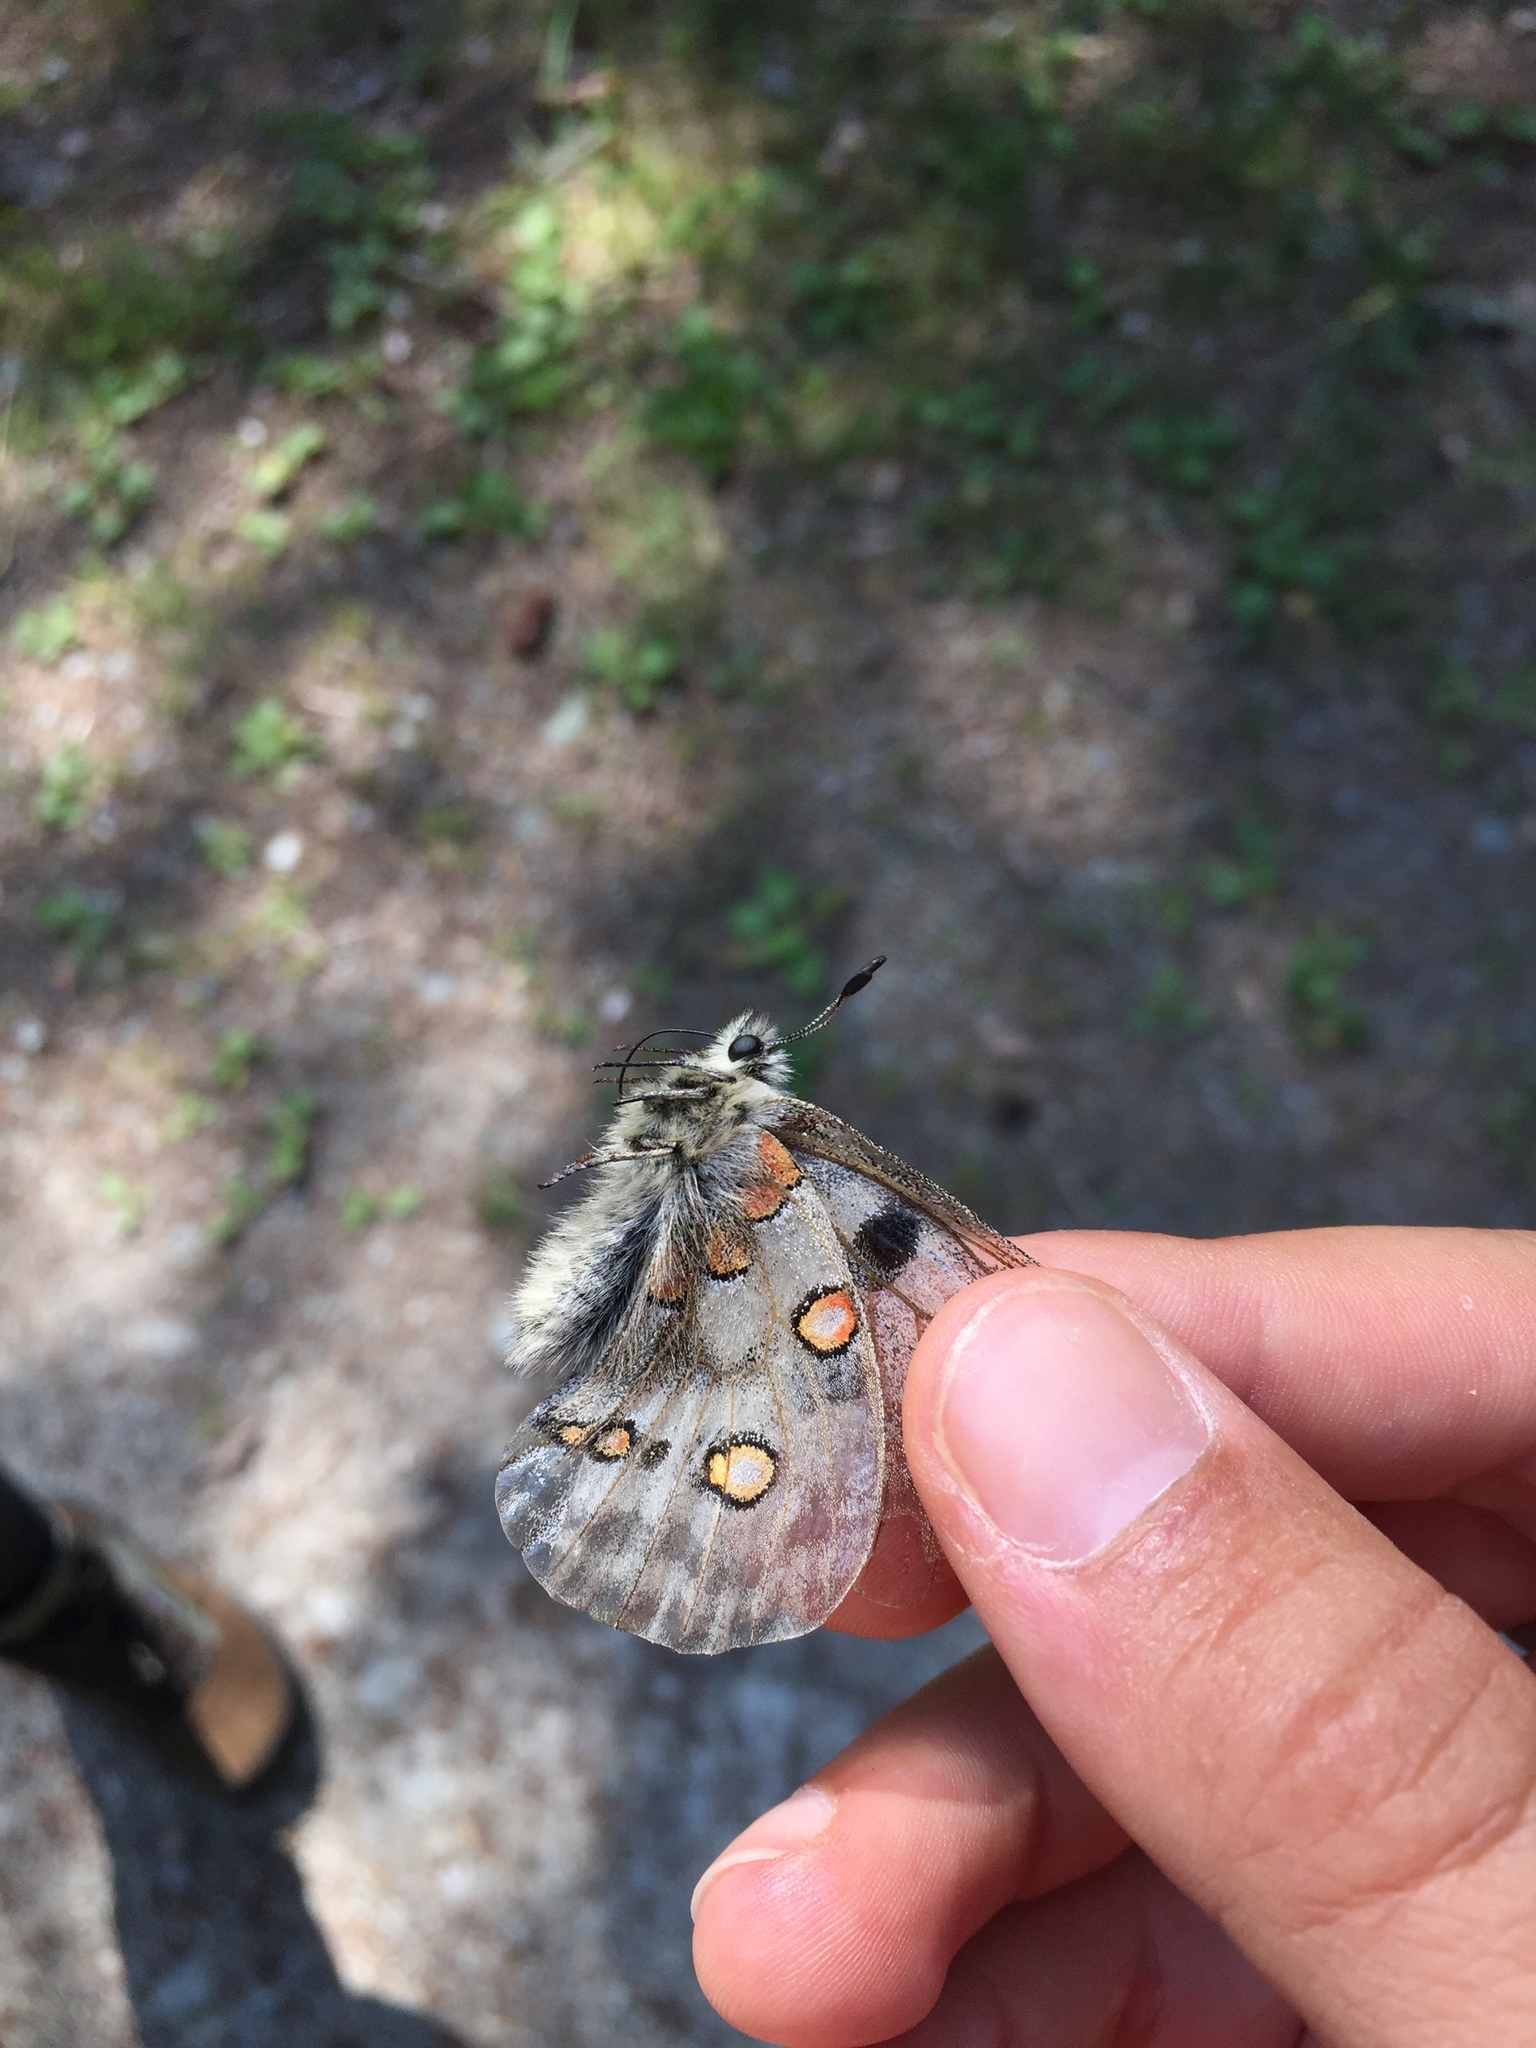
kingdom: Animalia
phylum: Arthropoda
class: Insecta
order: Lepidoptera
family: Papilionidae
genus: Parnassius
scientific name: Parnassius apollo
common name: Apollo
